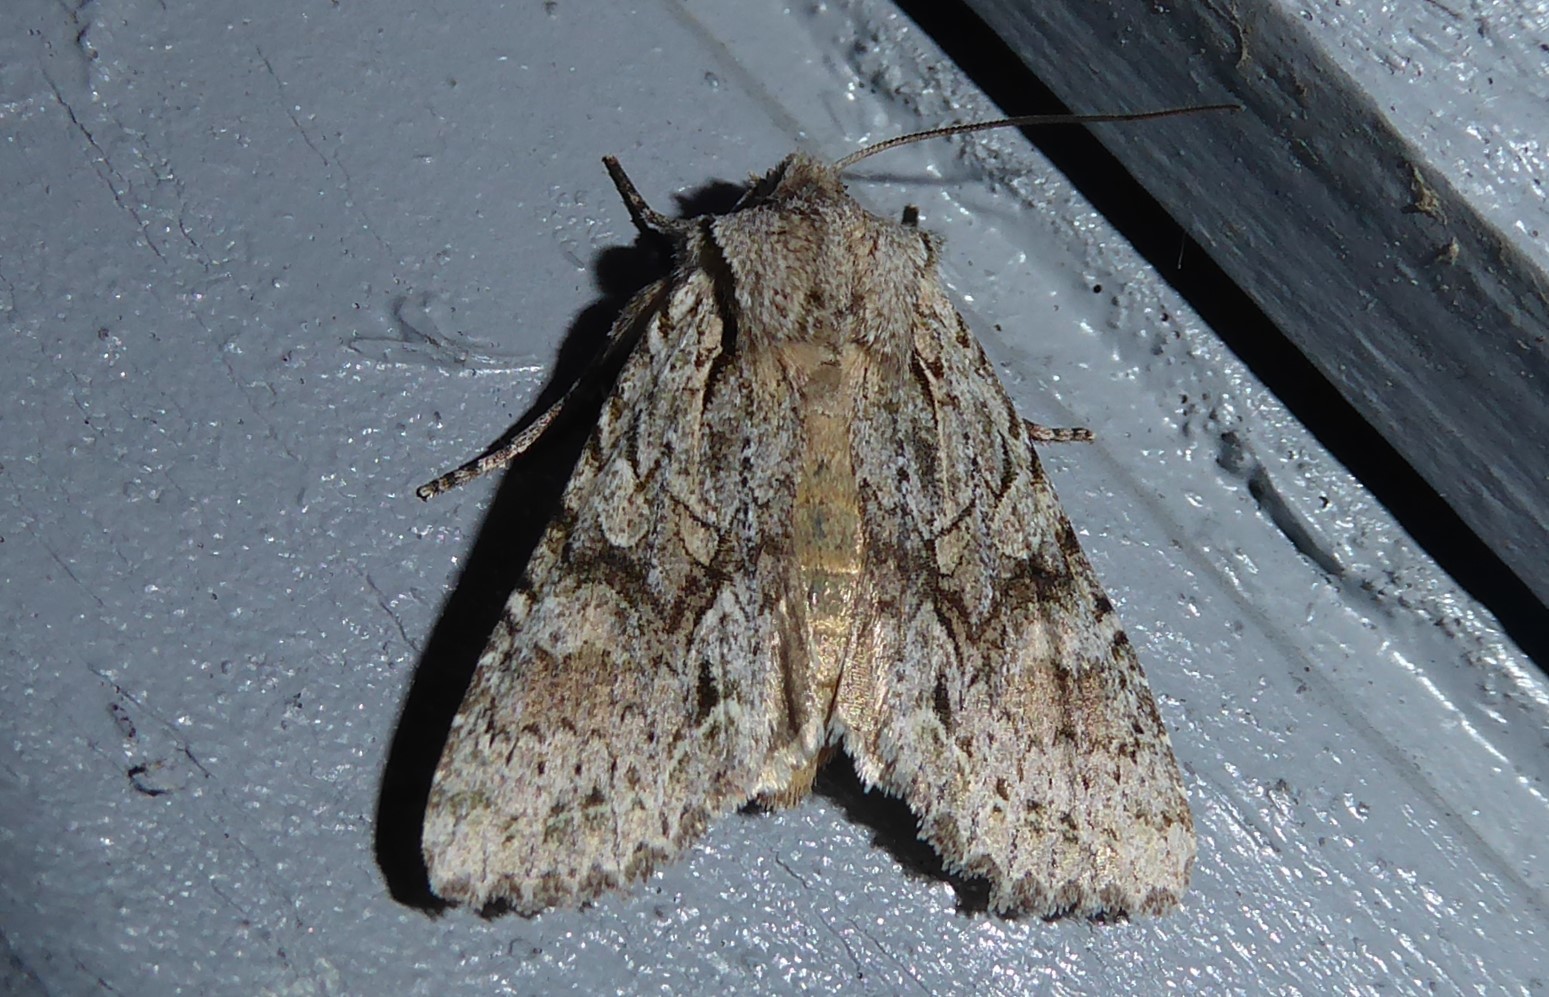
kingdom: Animalia
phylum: Arthropoda
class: Insecta
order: Lepidoptera
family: Noctuidae
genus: Ichneutica
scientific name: Ichneutica mutans
